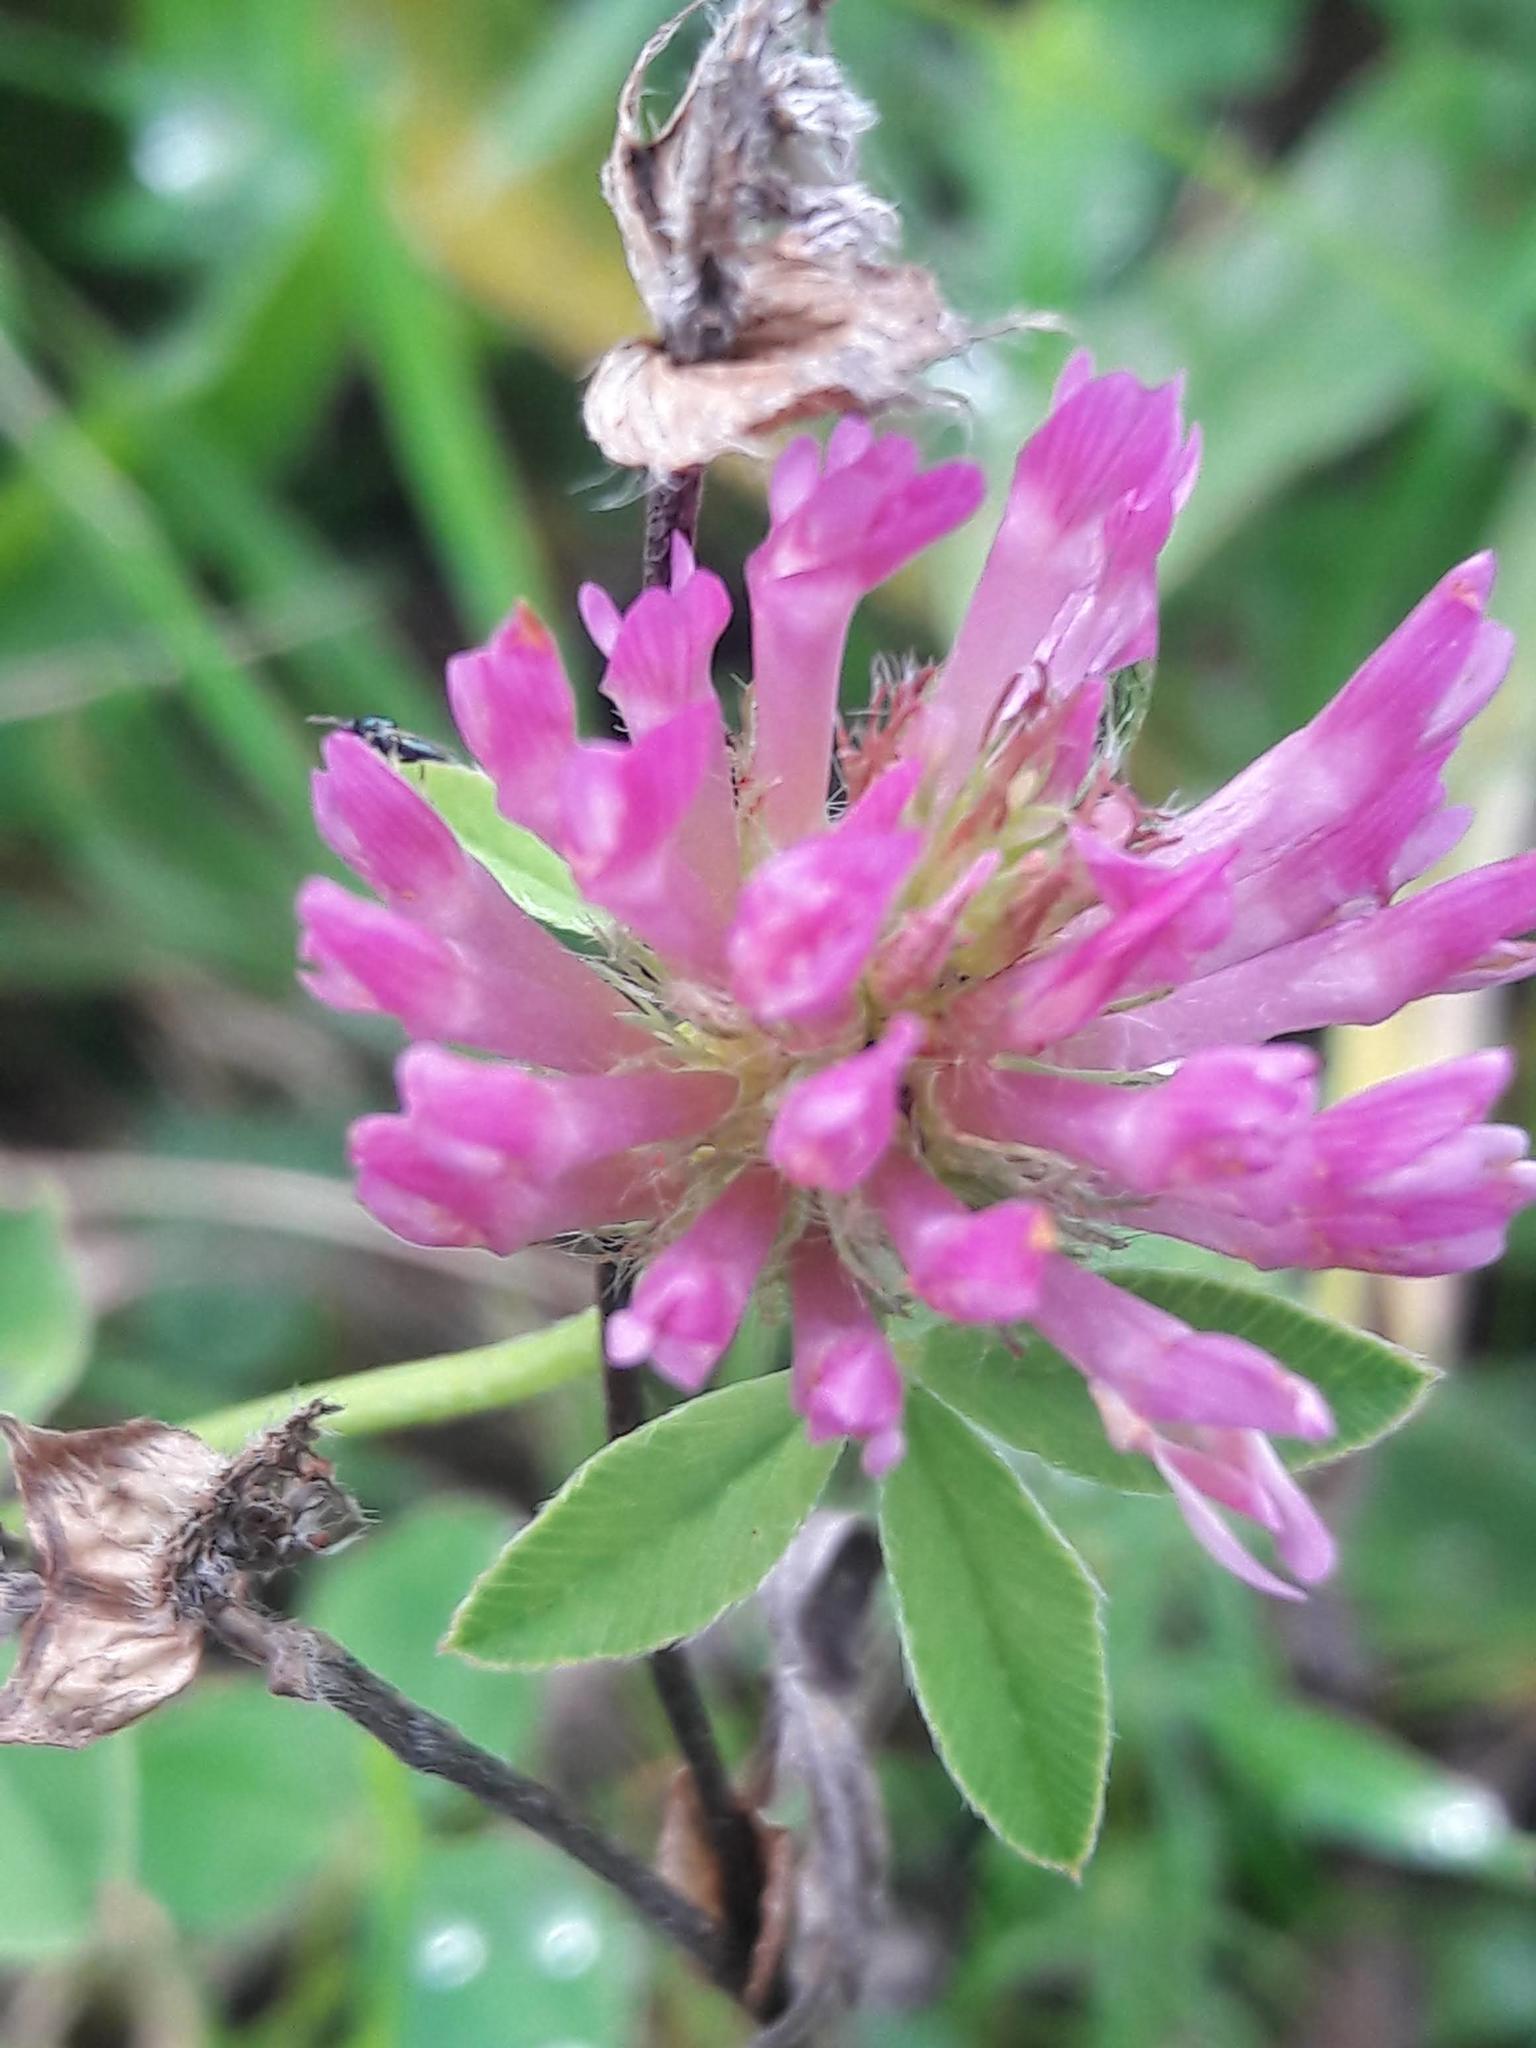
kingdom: Plantae
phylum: Tracheophyta
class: Magnoliopsida
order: Fabales
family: Fabaceae
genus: Trifolium
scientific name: Trifolium pratense
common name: Red clover
